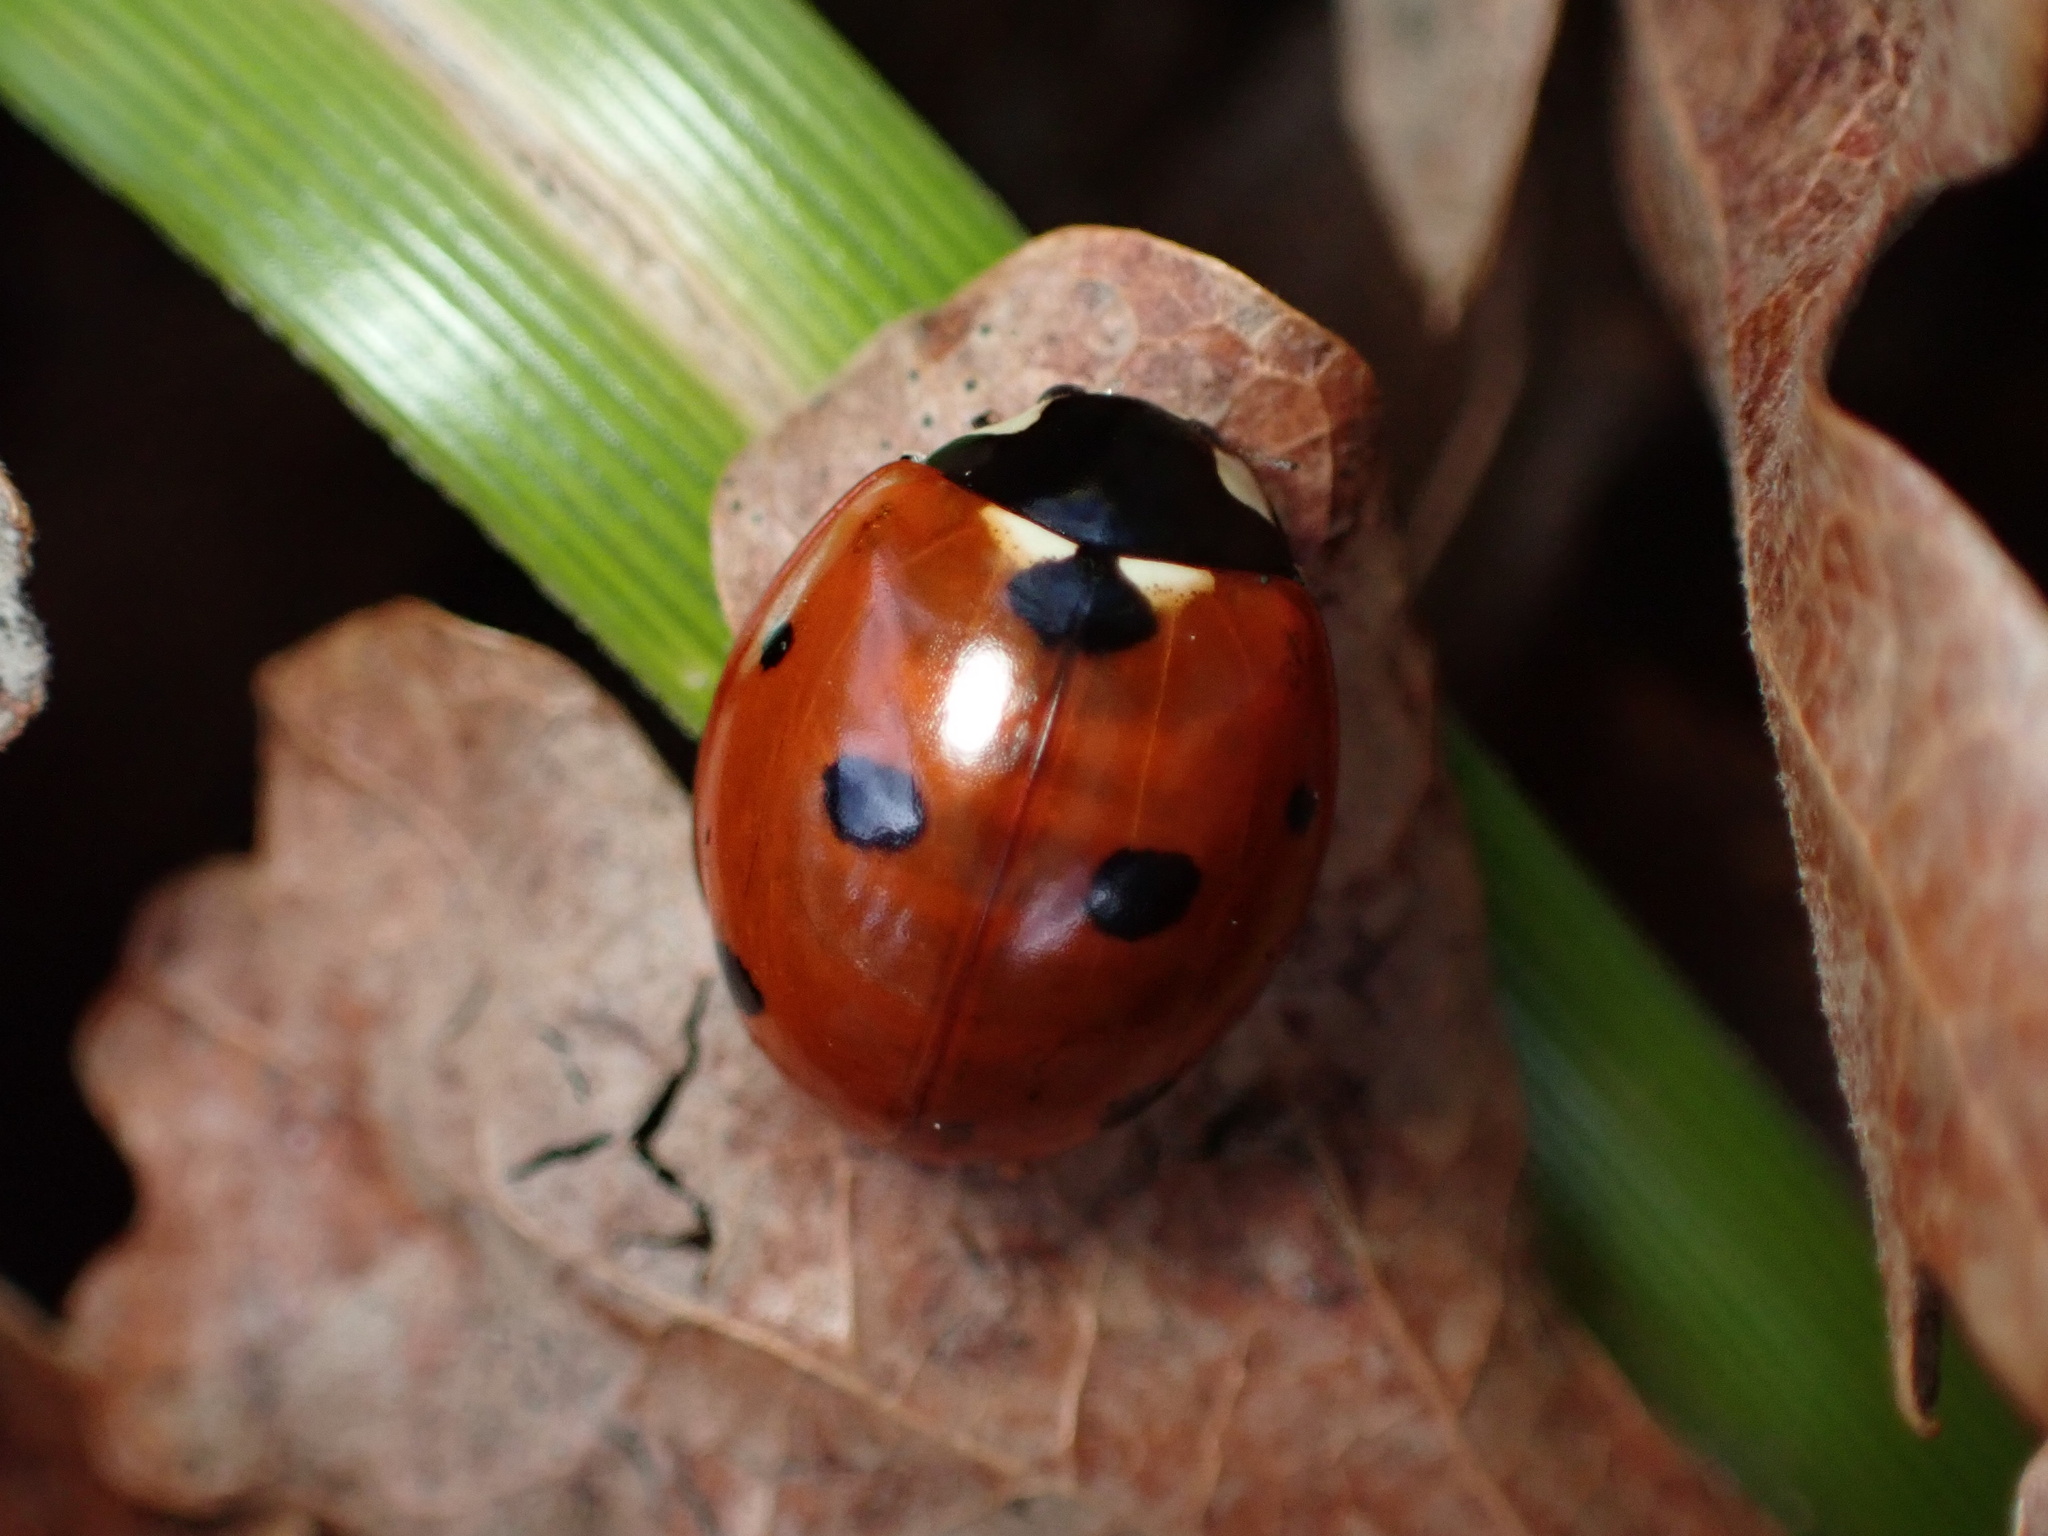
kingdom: Animalia
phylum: Arthropoda
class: Insecta
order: Coleoptera
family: Coccinellidae
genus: Coccinella
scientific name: Coccinella septempunctata
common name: Sevenspotted lady beetle
